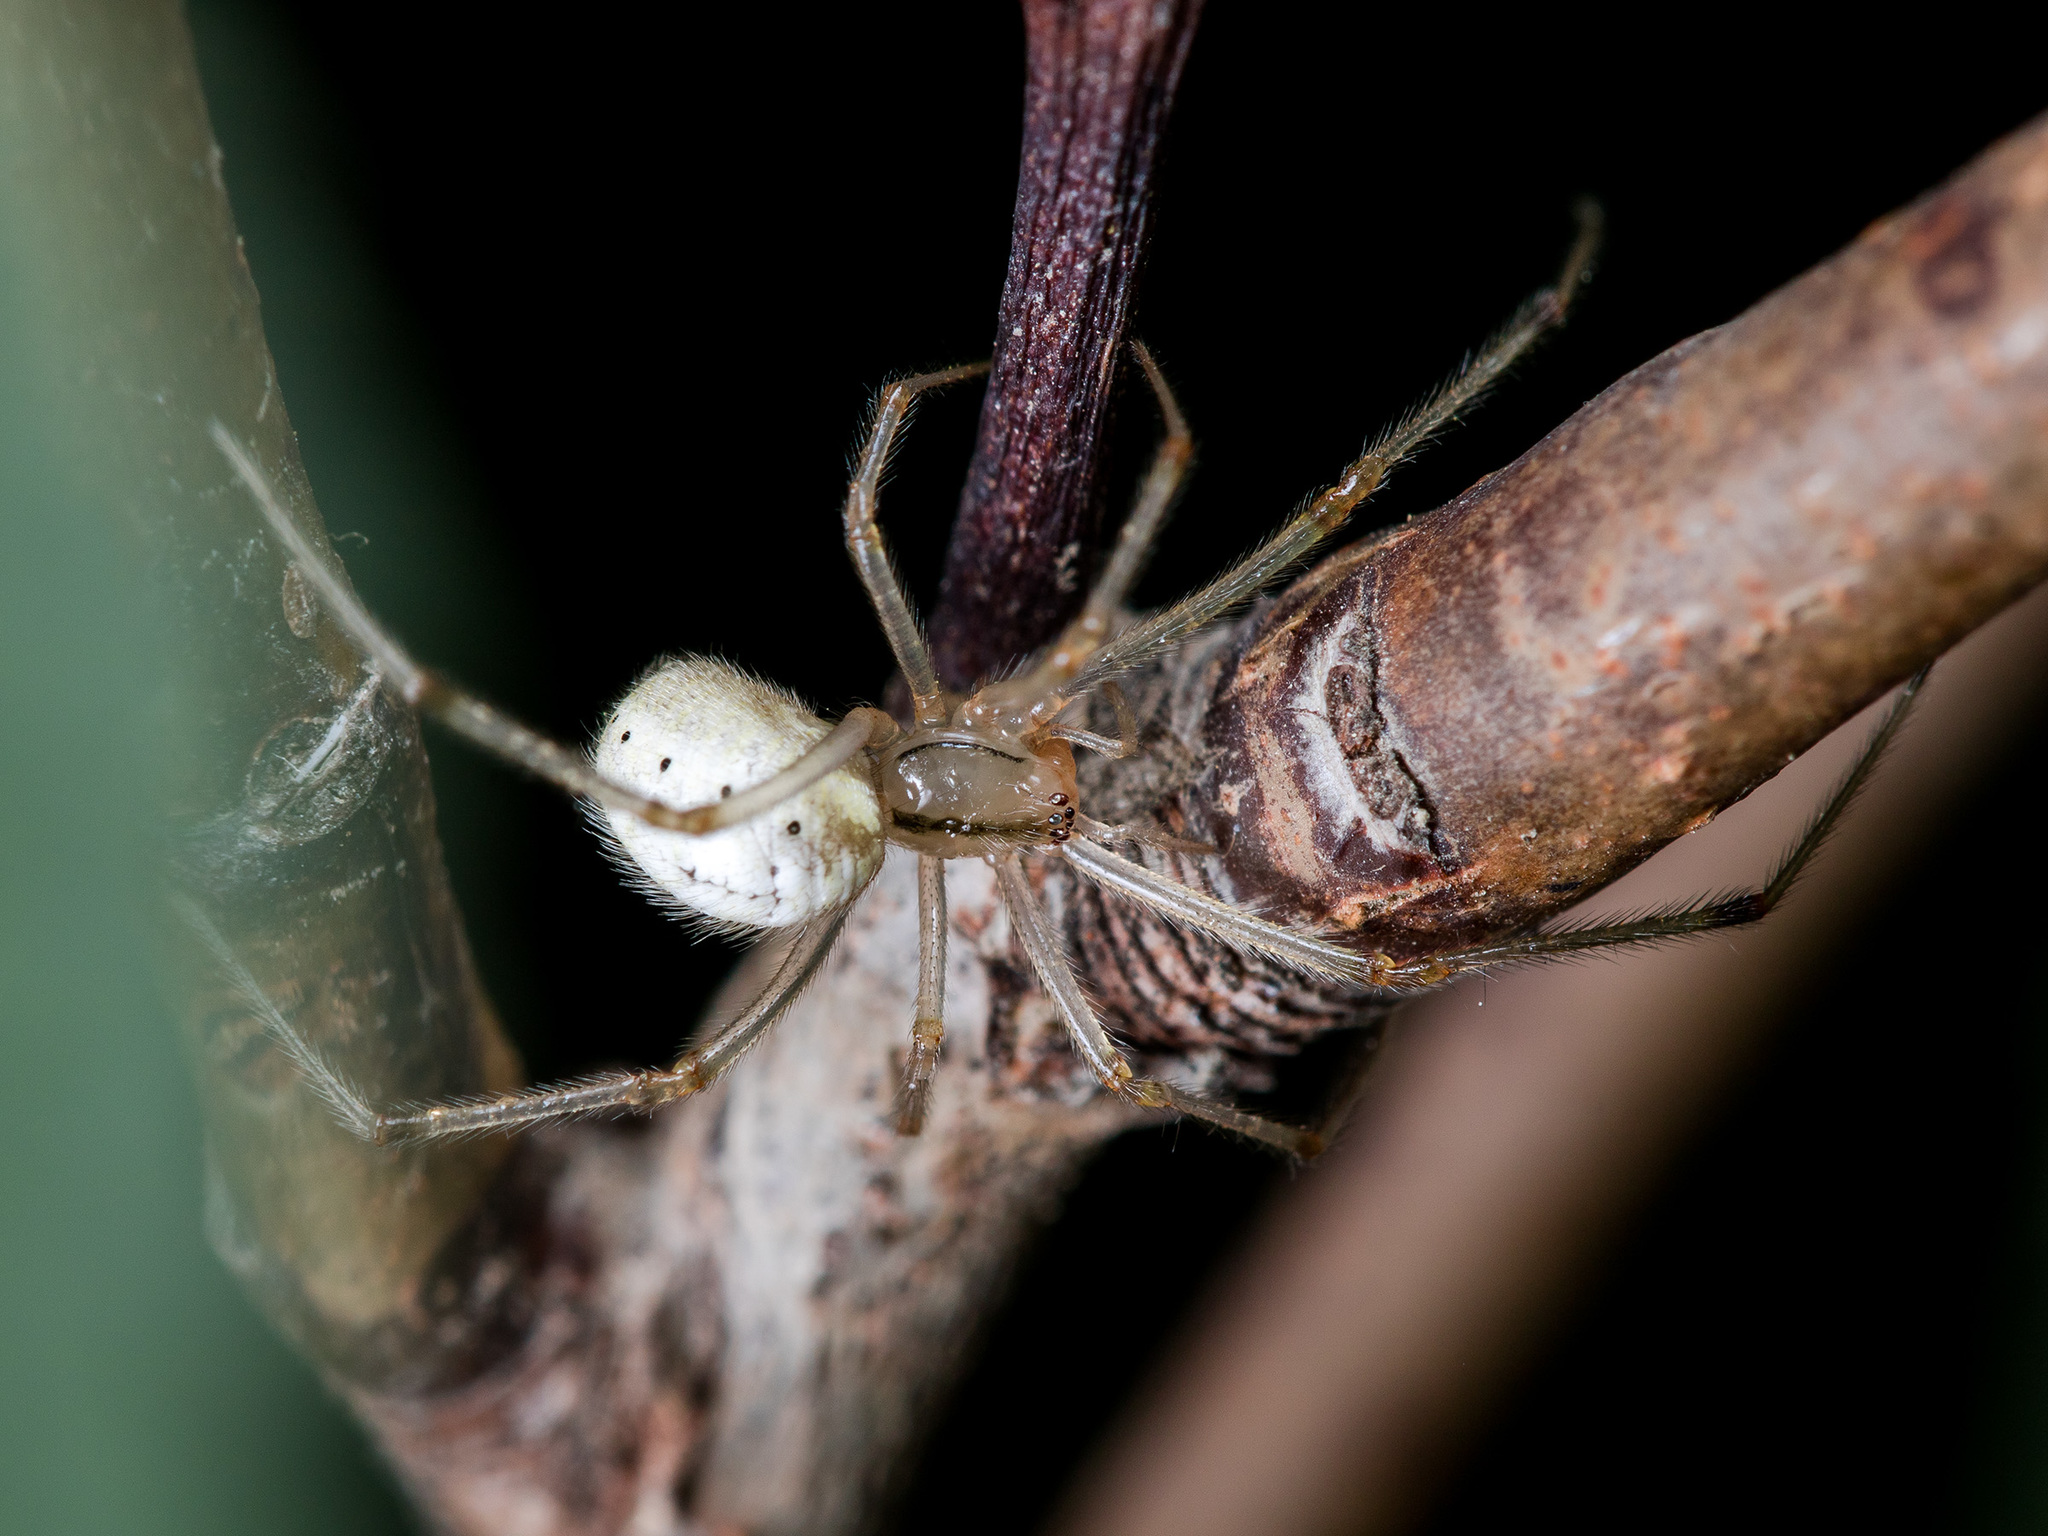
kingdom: Animalia
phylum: Arthropoda
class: Arachnida
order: Araneae
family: Theridiidae
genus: Enoplognatha
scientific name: Enoplognatha submargarita
